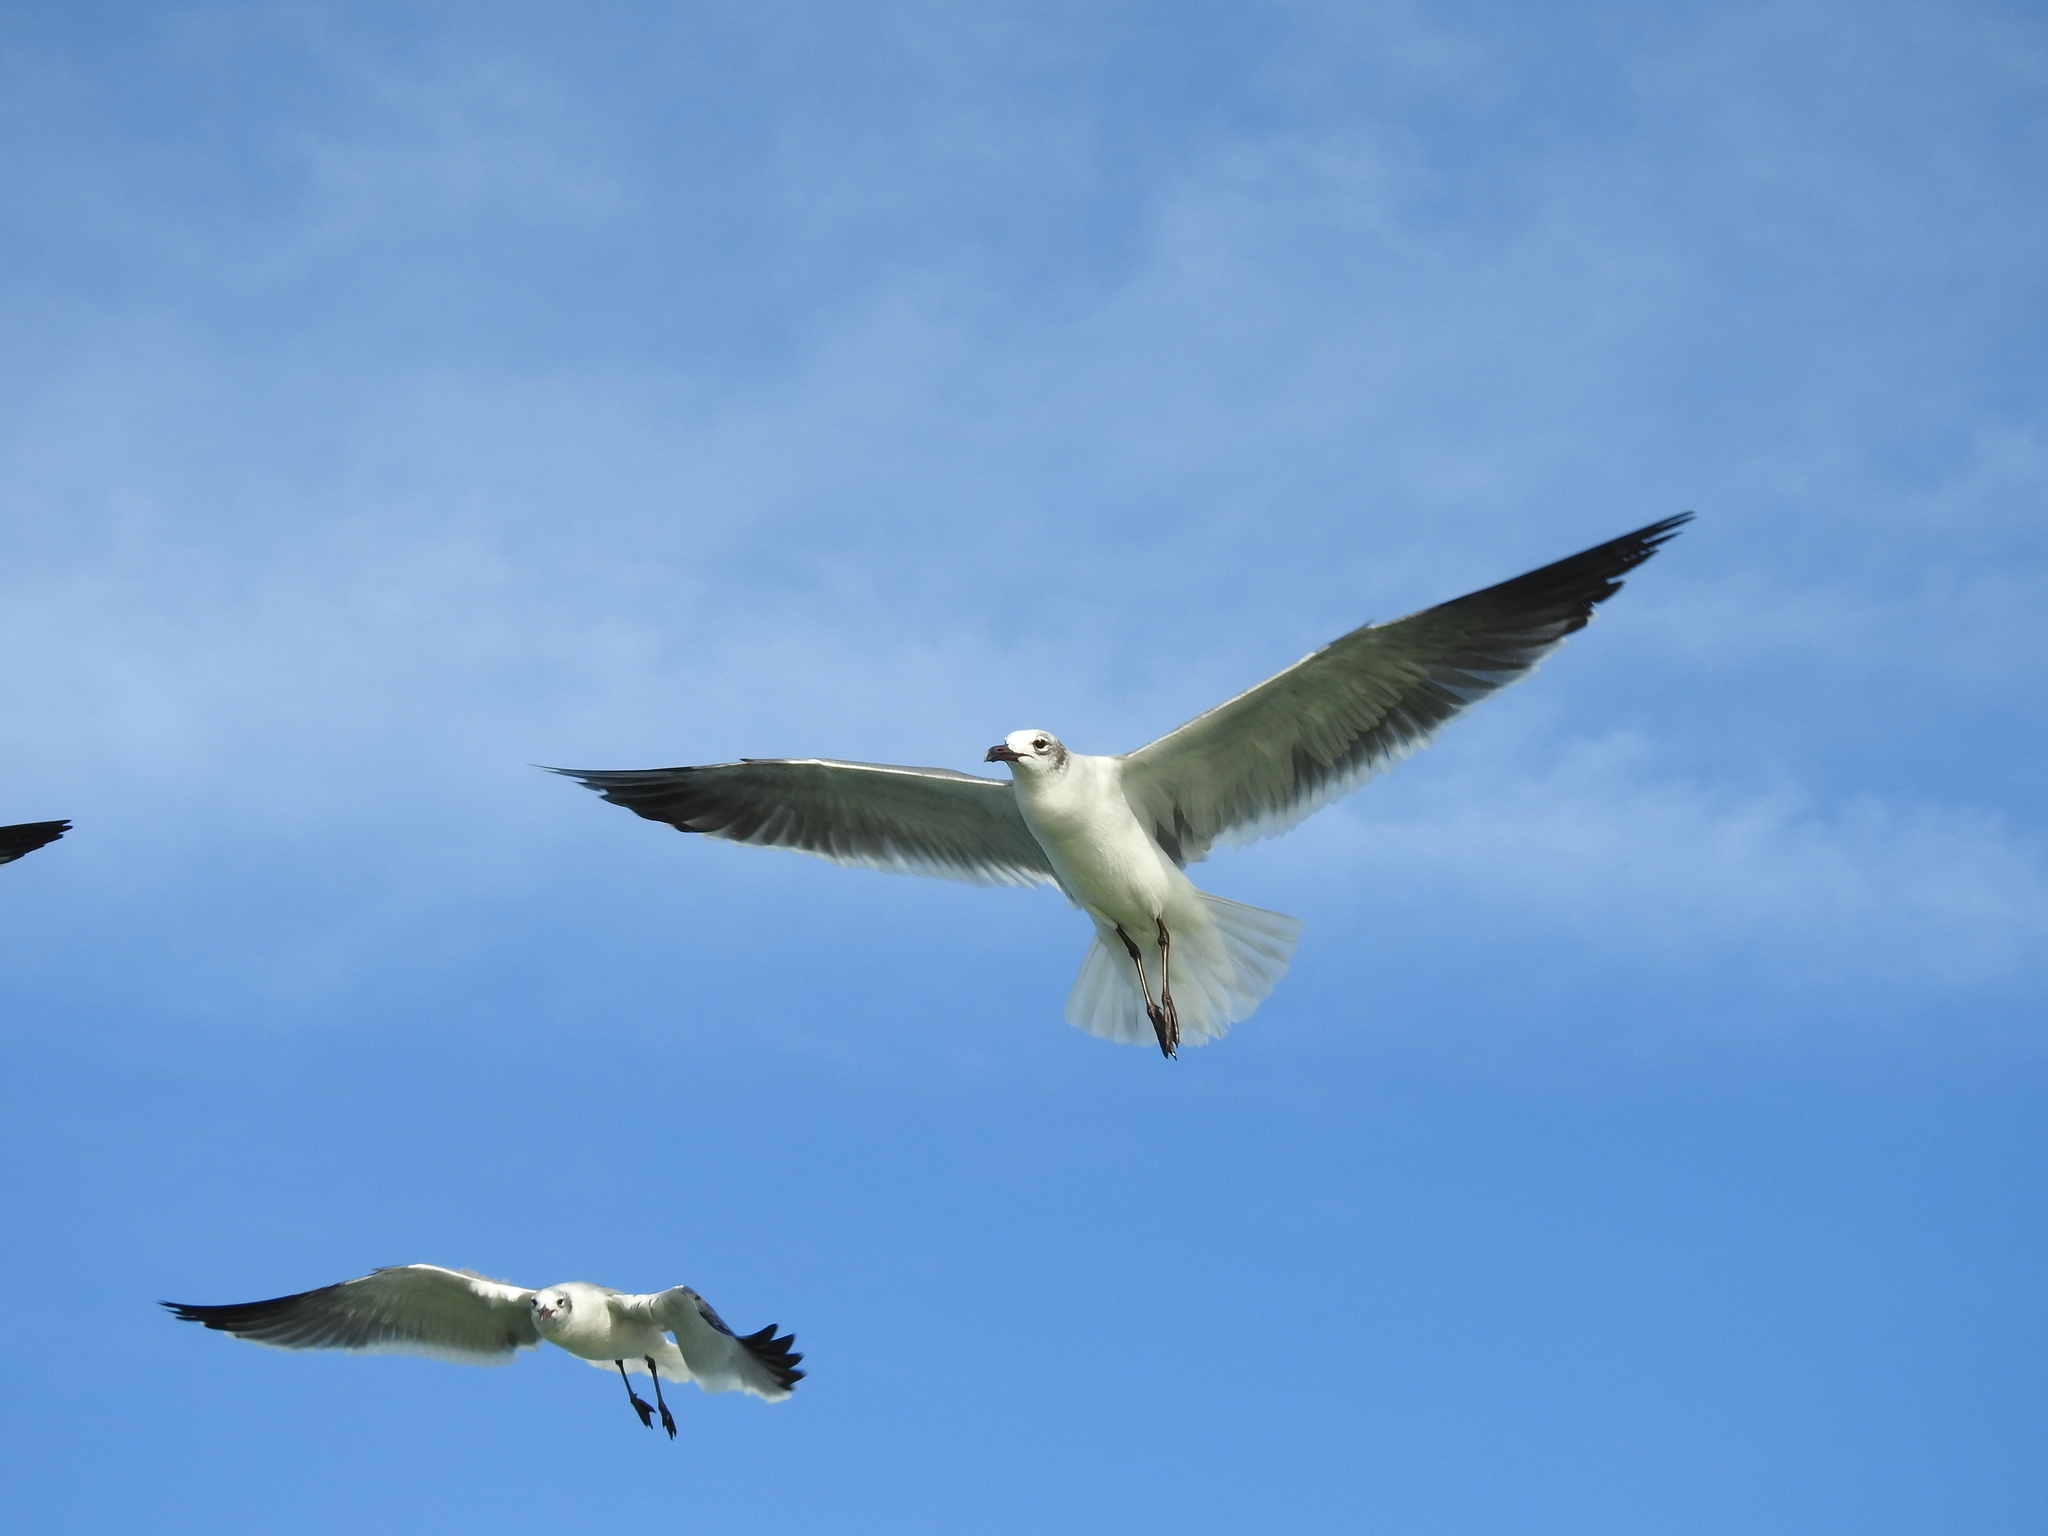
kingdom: Animalia
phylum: Chordata
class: Aves
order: Charadriiformes
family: Laridae
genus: Leucophaeus
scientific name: Leucophaeus atricilla
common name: Laughing gull
